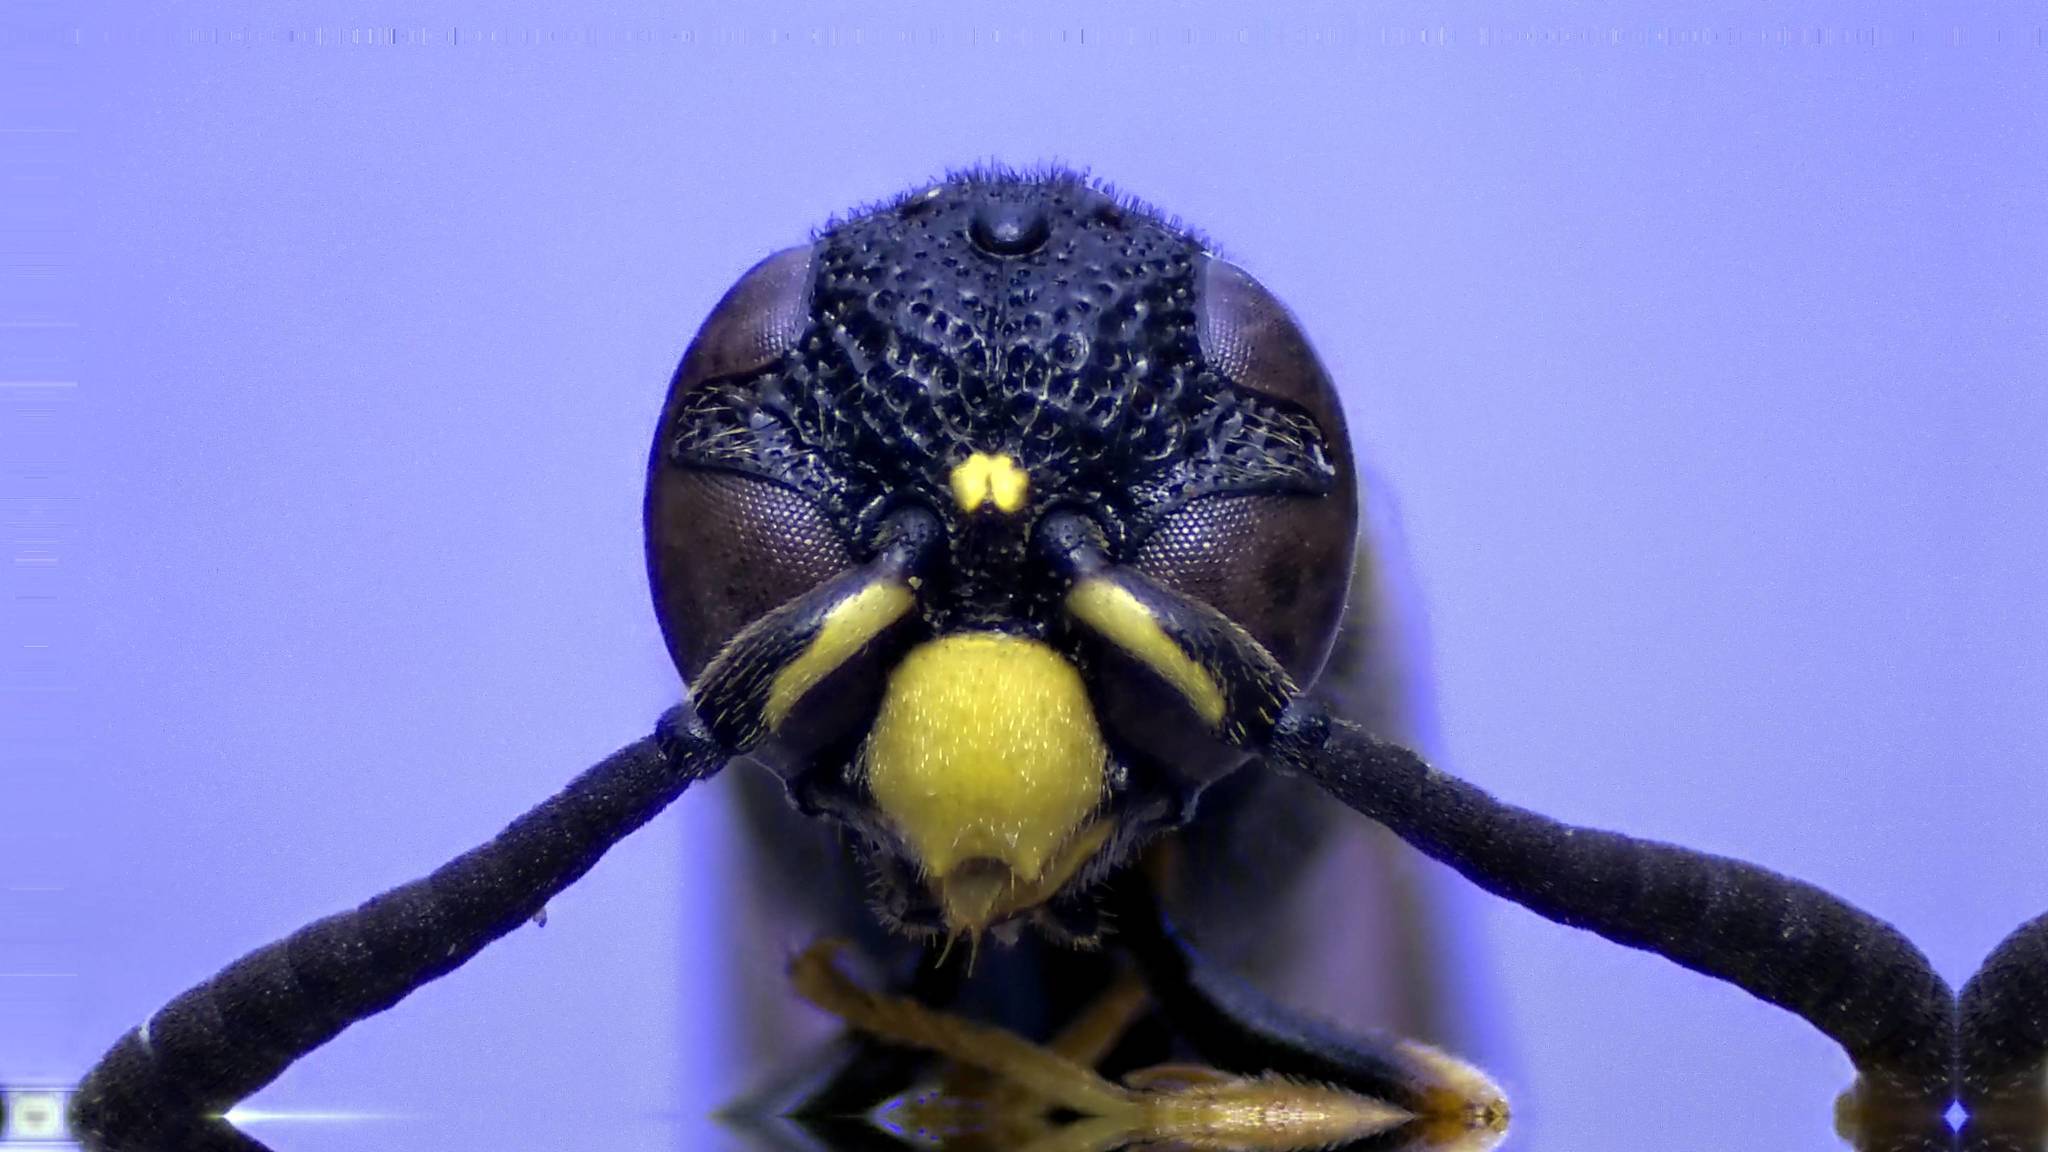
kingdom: Animalia
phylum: Arthropoda
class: Insecta
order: Hymenoptera
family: Eumenidae
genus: Symmorphus
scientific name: Symmorphus canadensis
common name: Canadian potter wasp
